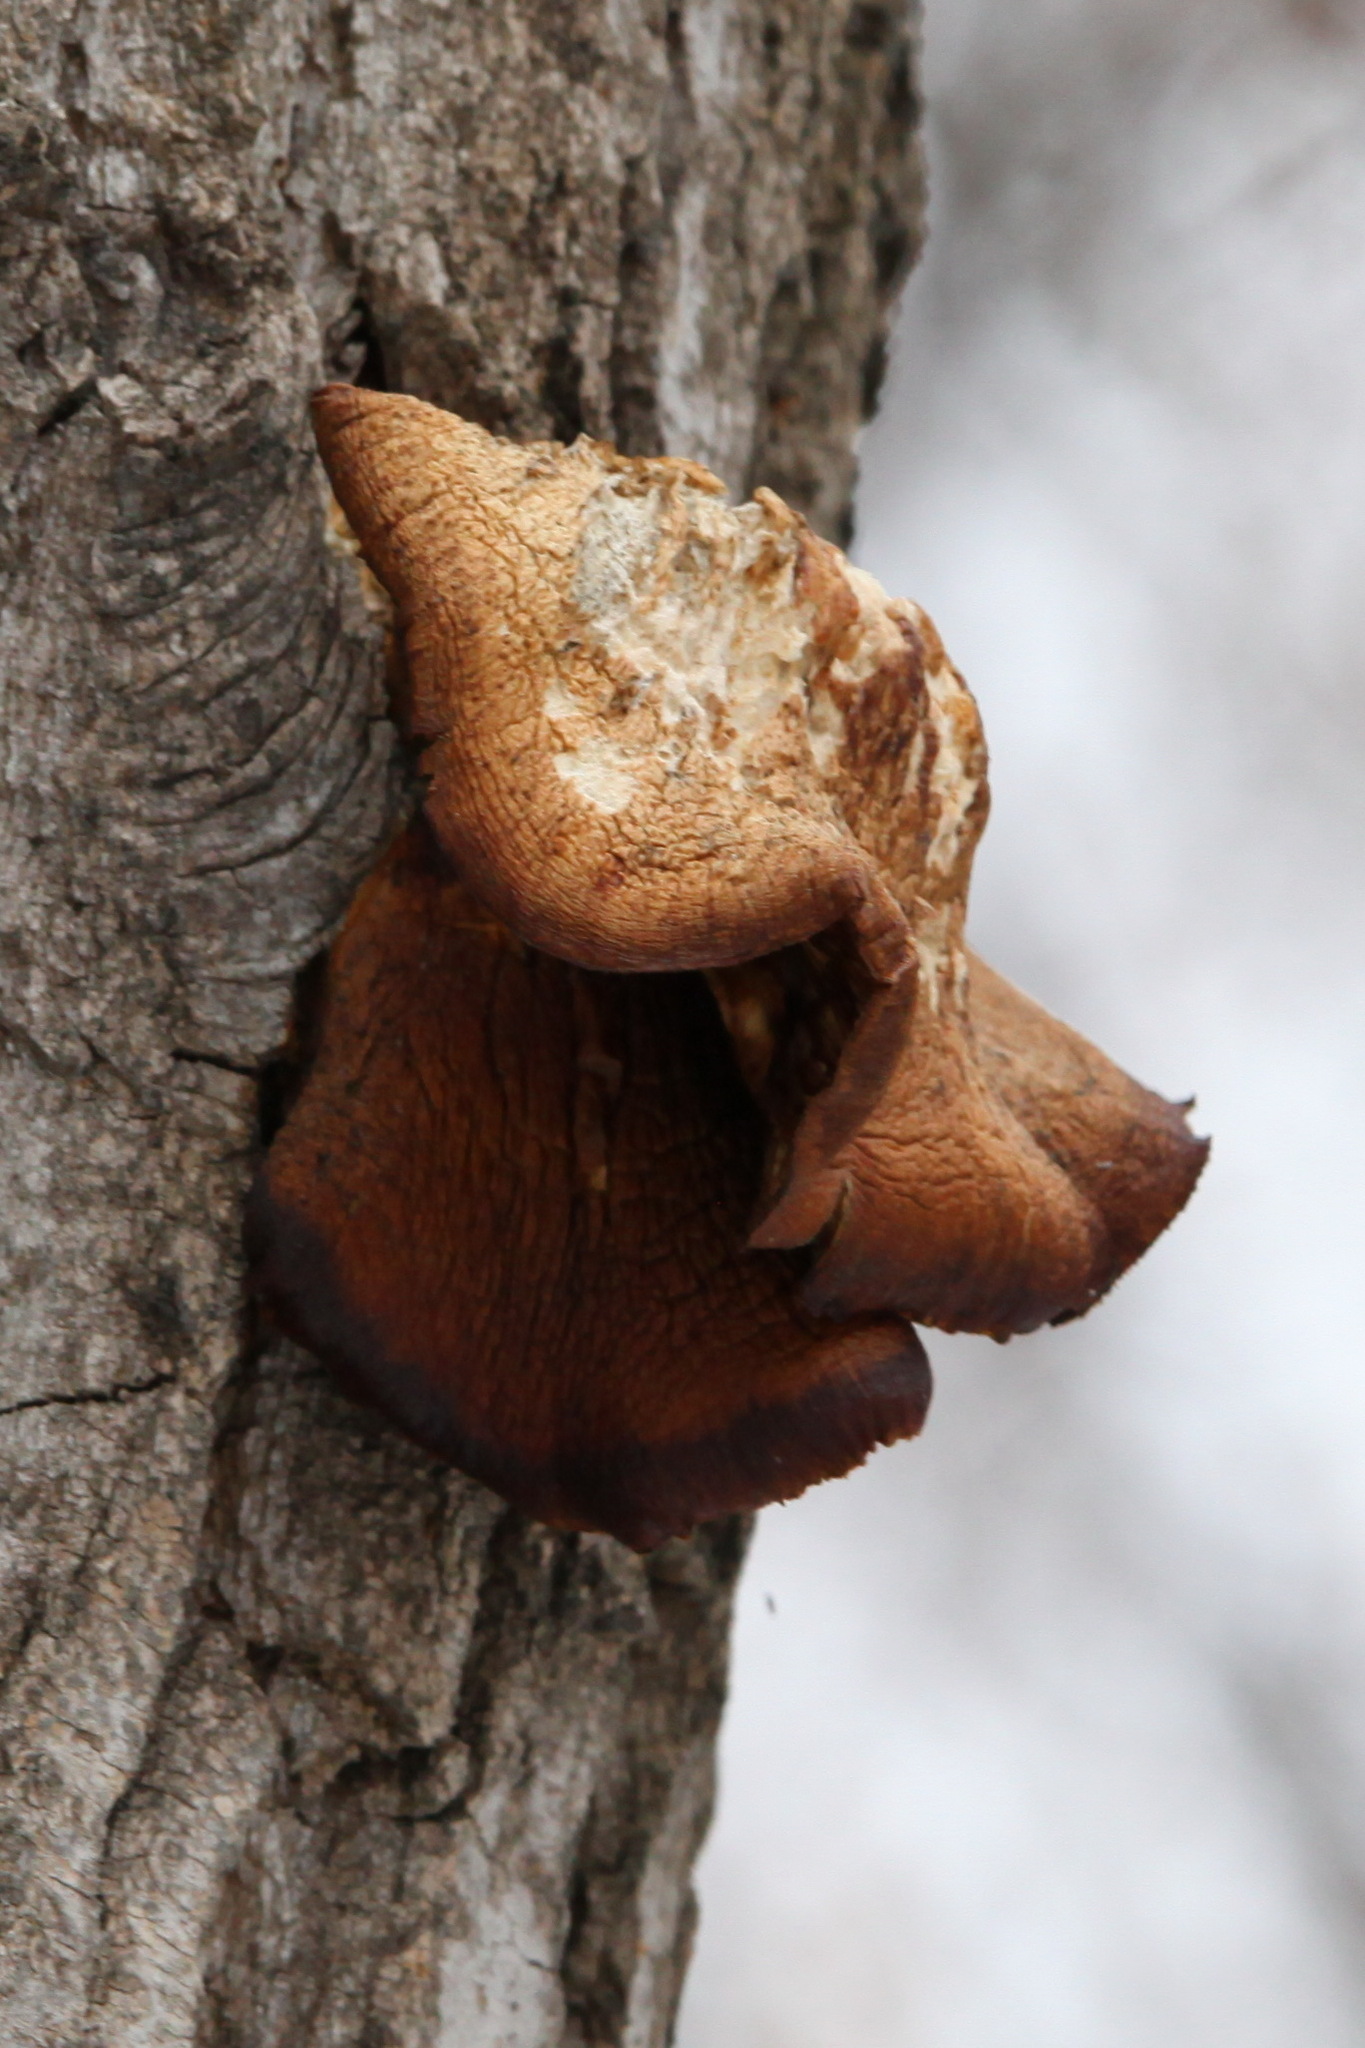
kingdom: Fungi
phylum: Basidiomycota
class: Agaricomycetes
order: Agaricales
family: Pleurotaceae
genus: Pleurotus
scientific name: Pleurotus ostreatus
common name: Oyster mushroom
